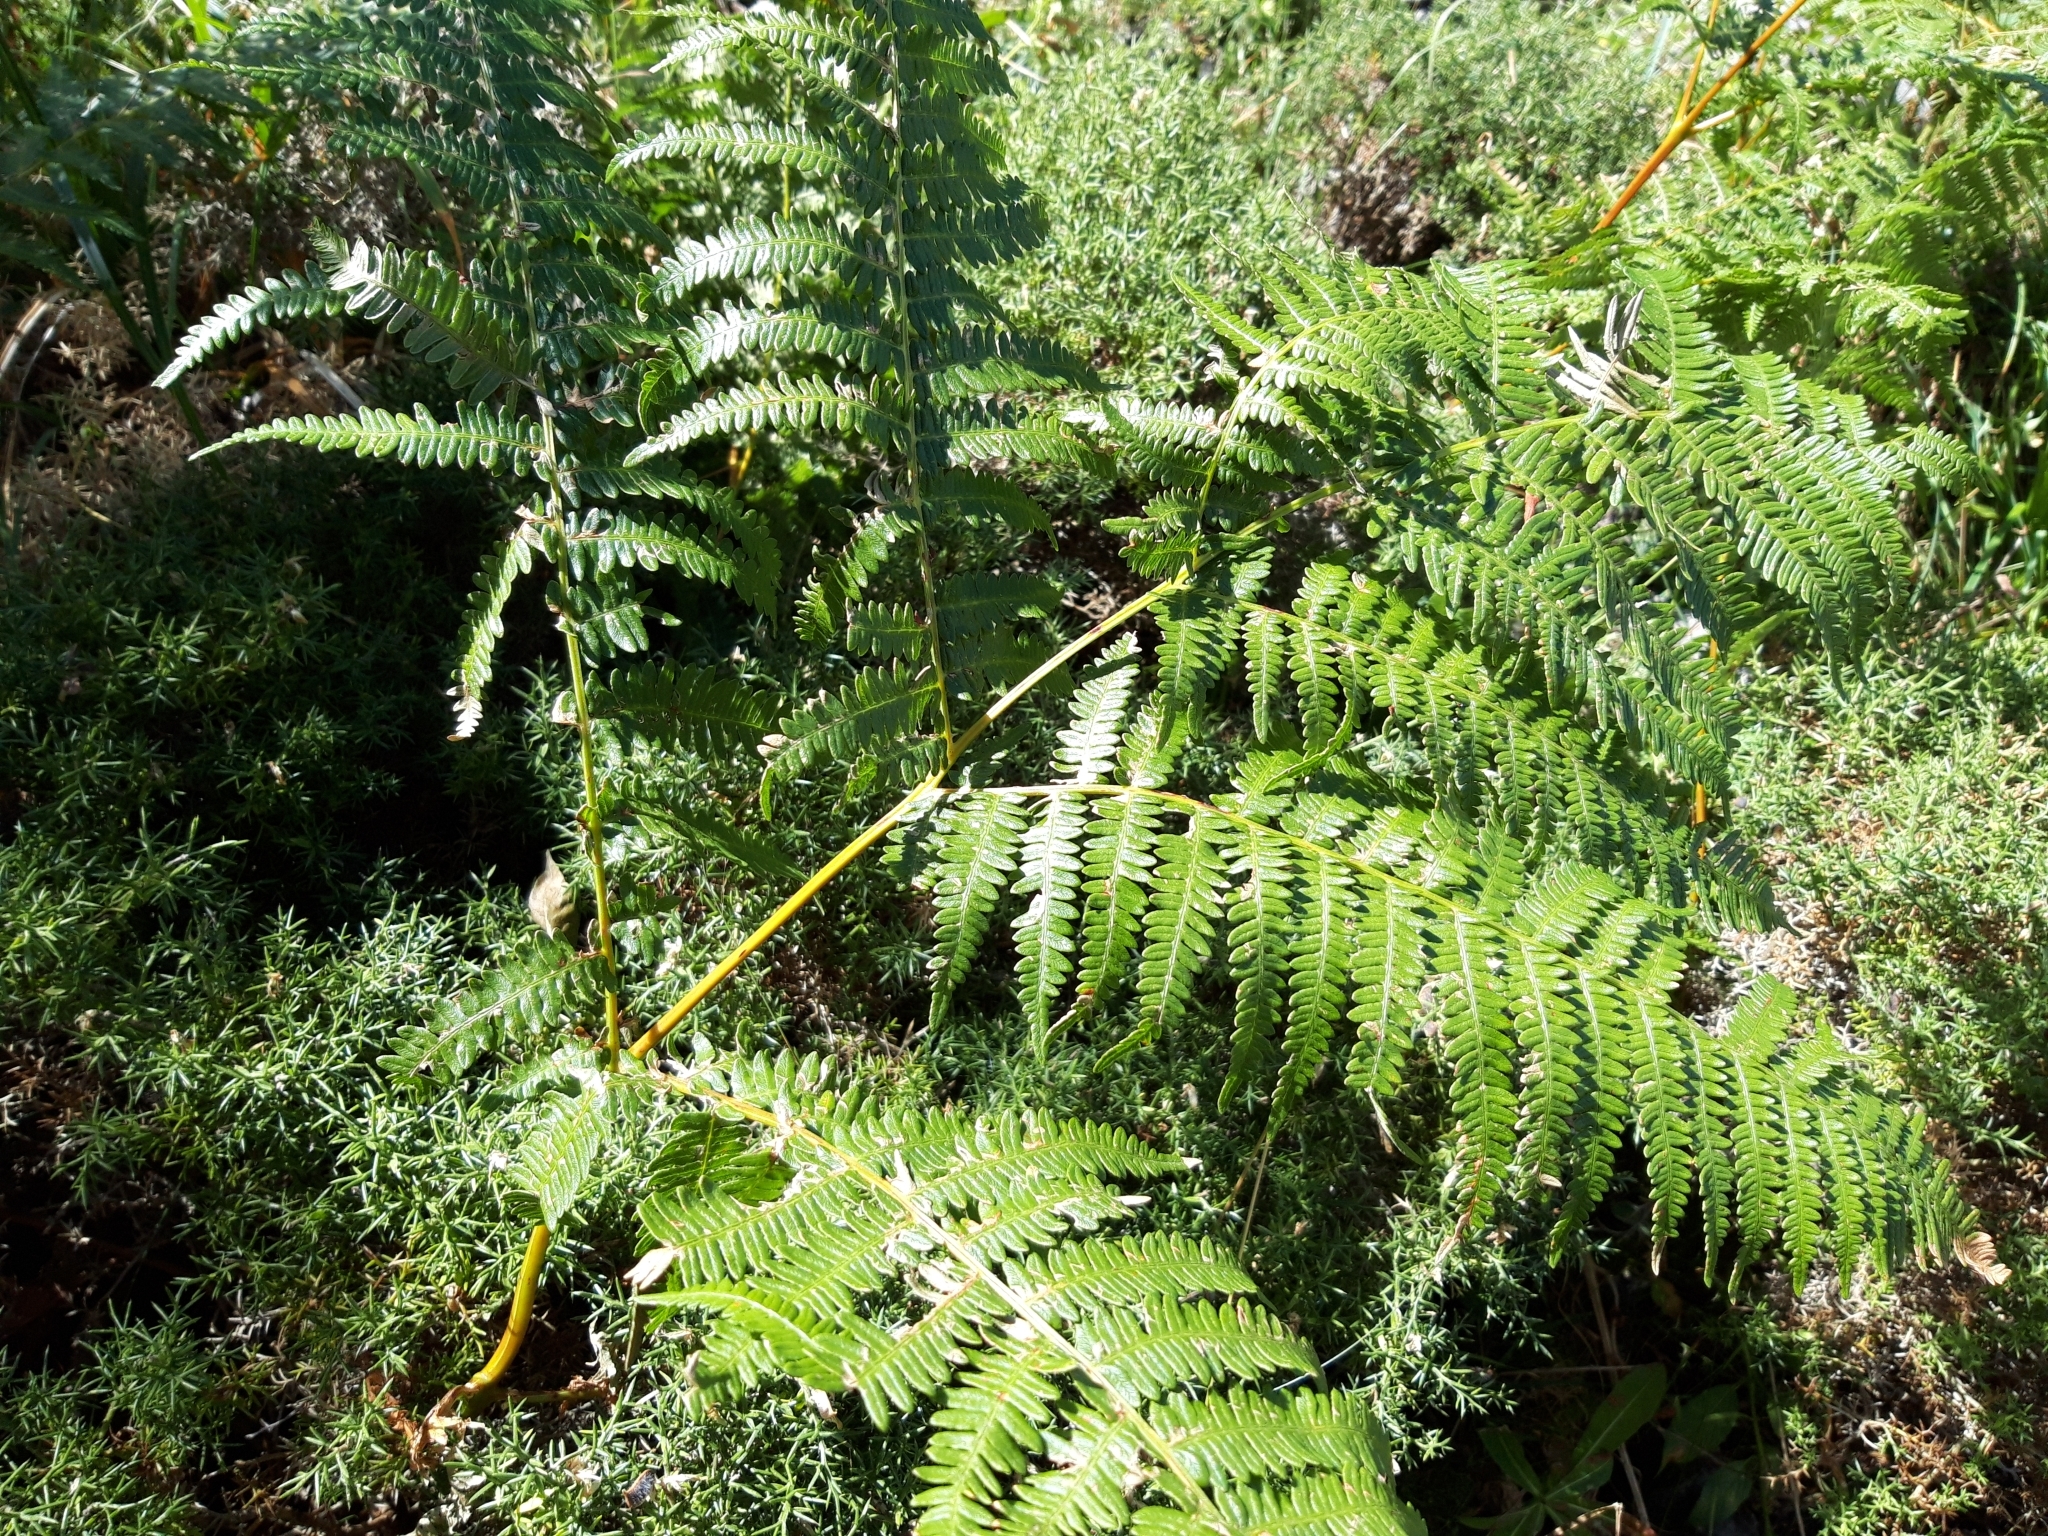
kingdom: Plantae
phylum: Tracheophyta
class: Polypodiopsida
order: Polypodiales
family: Dennstaedtiaceae
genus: Pteridium
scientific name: Pteridium aquilinum
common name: Bracken
